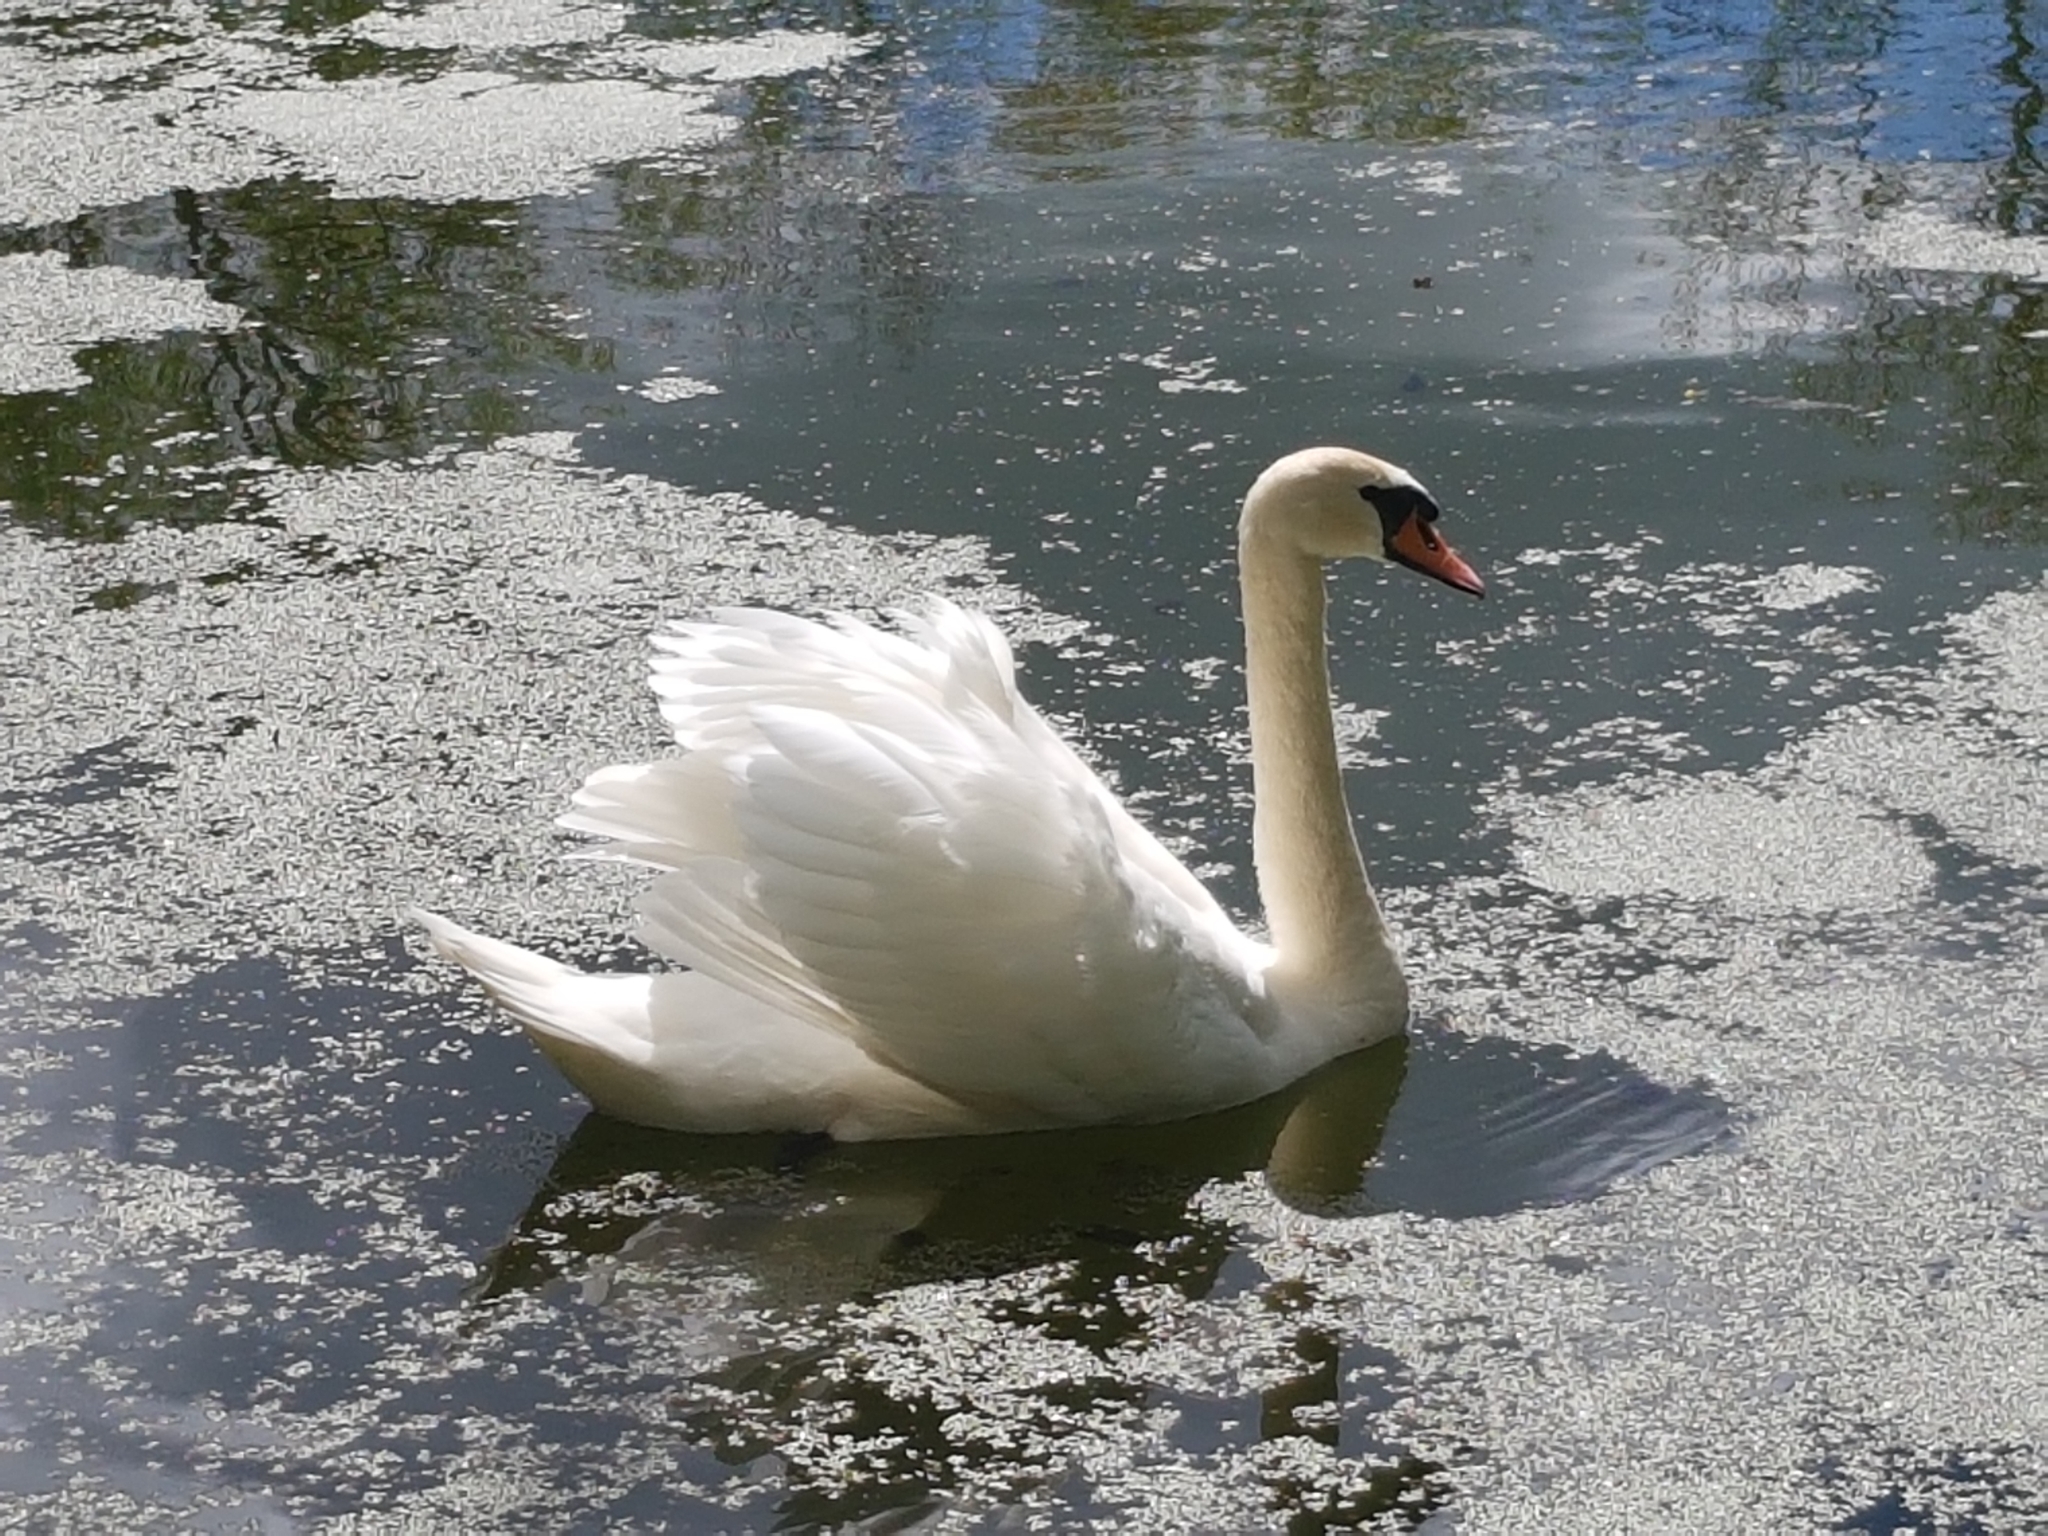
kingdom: Animalia
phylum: Chordata
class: Aves
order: Anseriformes
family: Anatidae
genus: Cygnus
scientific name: Cygnus olor
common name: Mute swan
